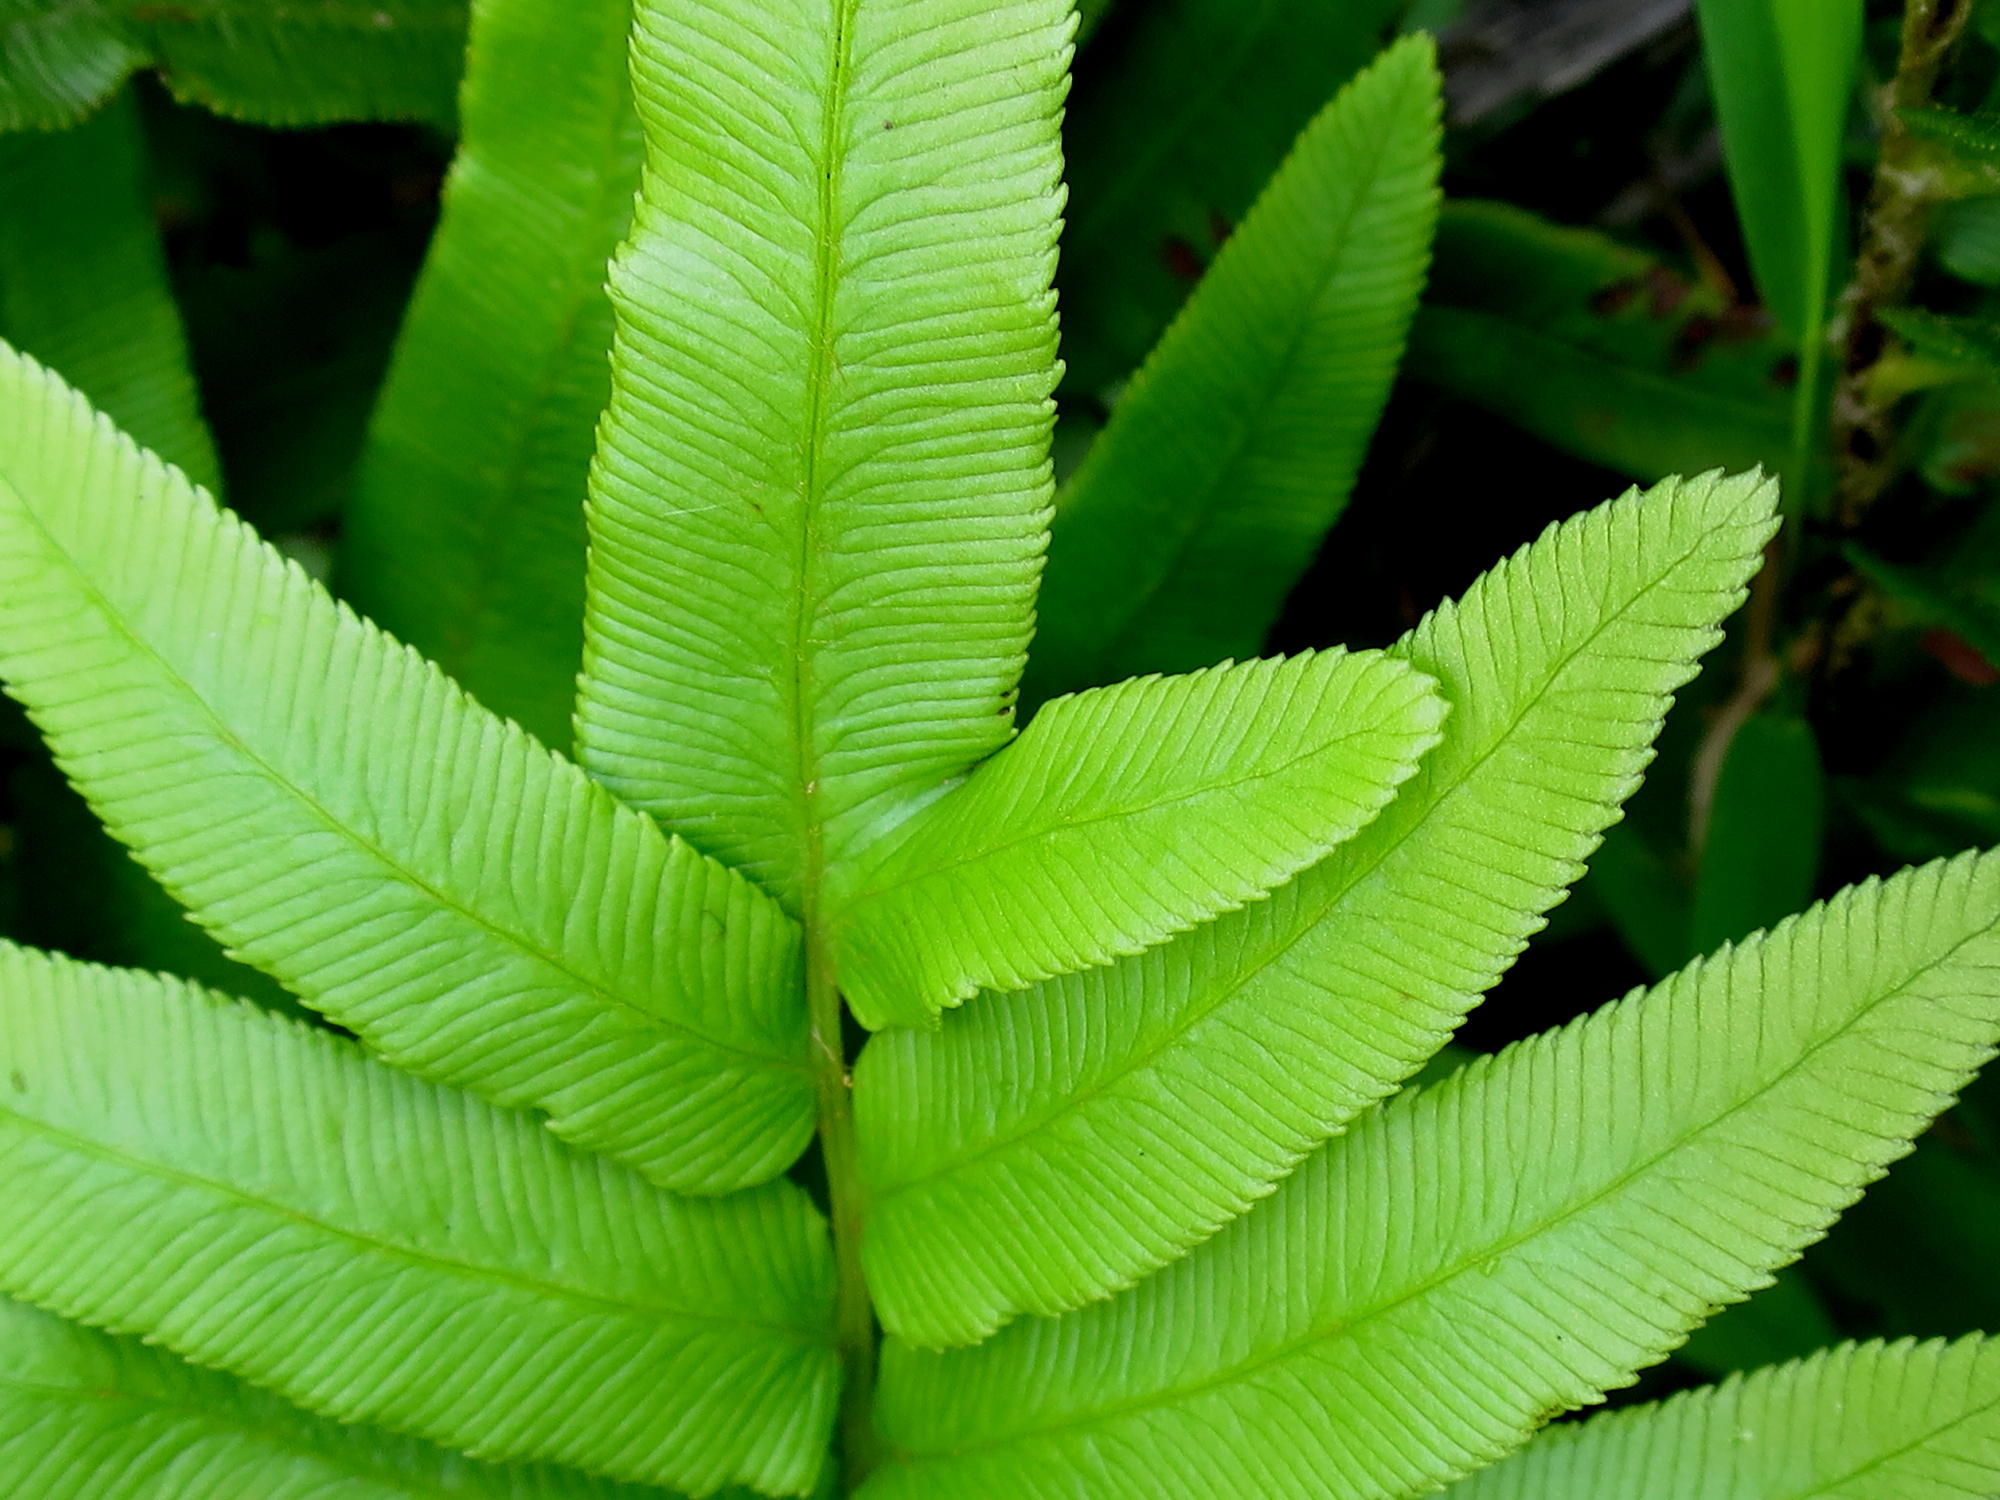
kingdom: Plantae
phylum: Tracheophyta
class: Polypodiopsida
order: Polypodiales
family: Blechnaceae
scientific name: Blechnaceae
